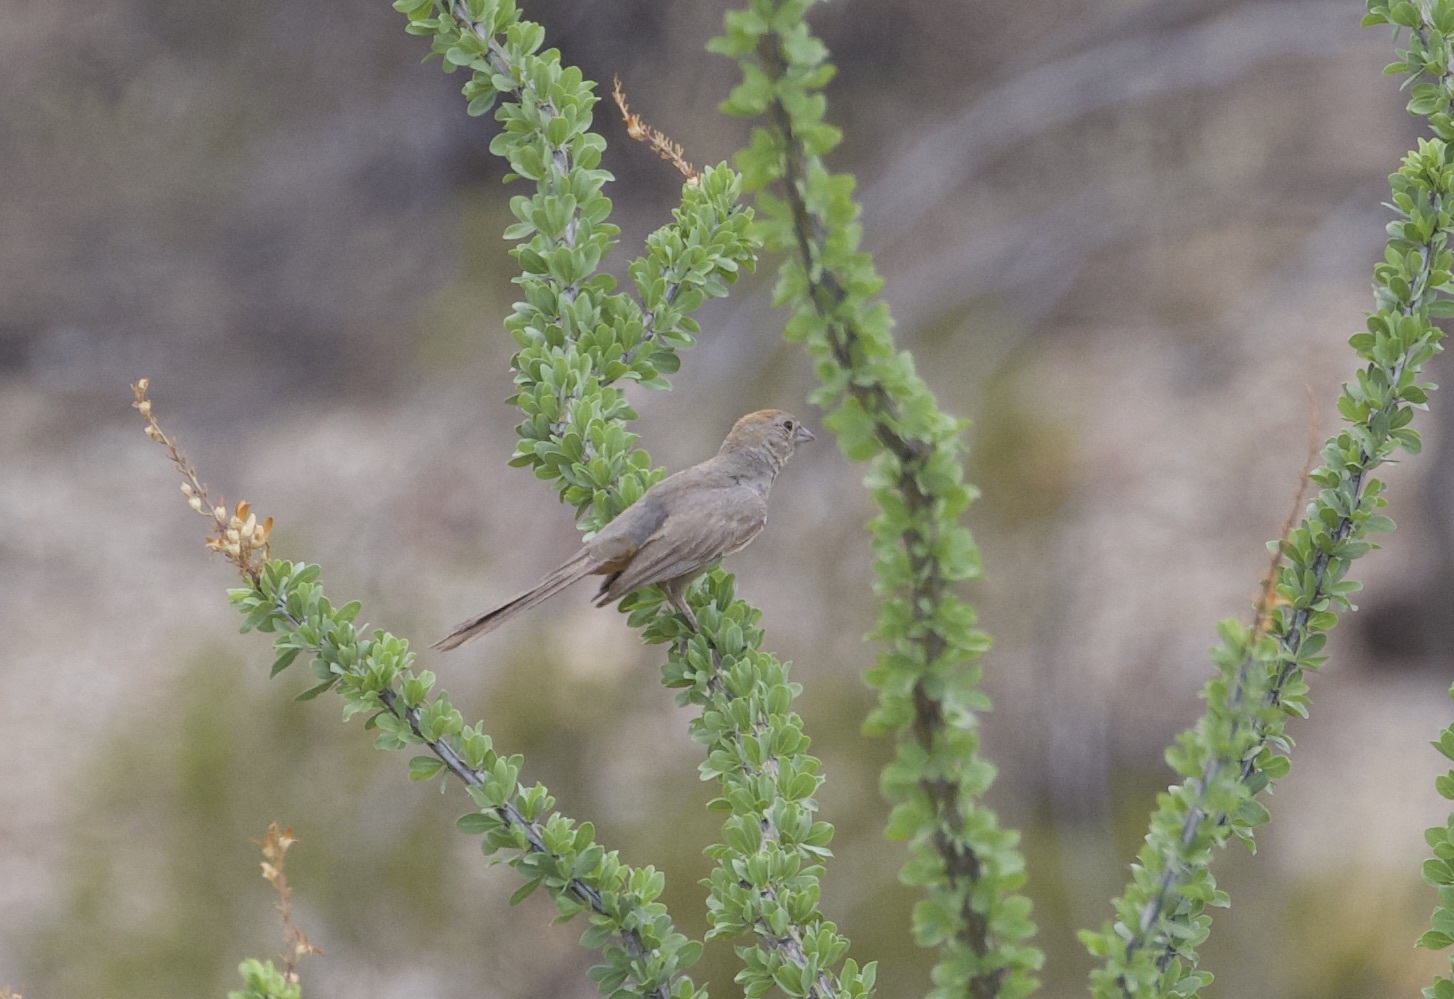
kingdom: Animalia
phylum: Chordata
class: Aves
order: Passeriformes
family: Passerellidae
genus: Melozone
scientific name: Melozone fusca
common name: Canyon towhee
